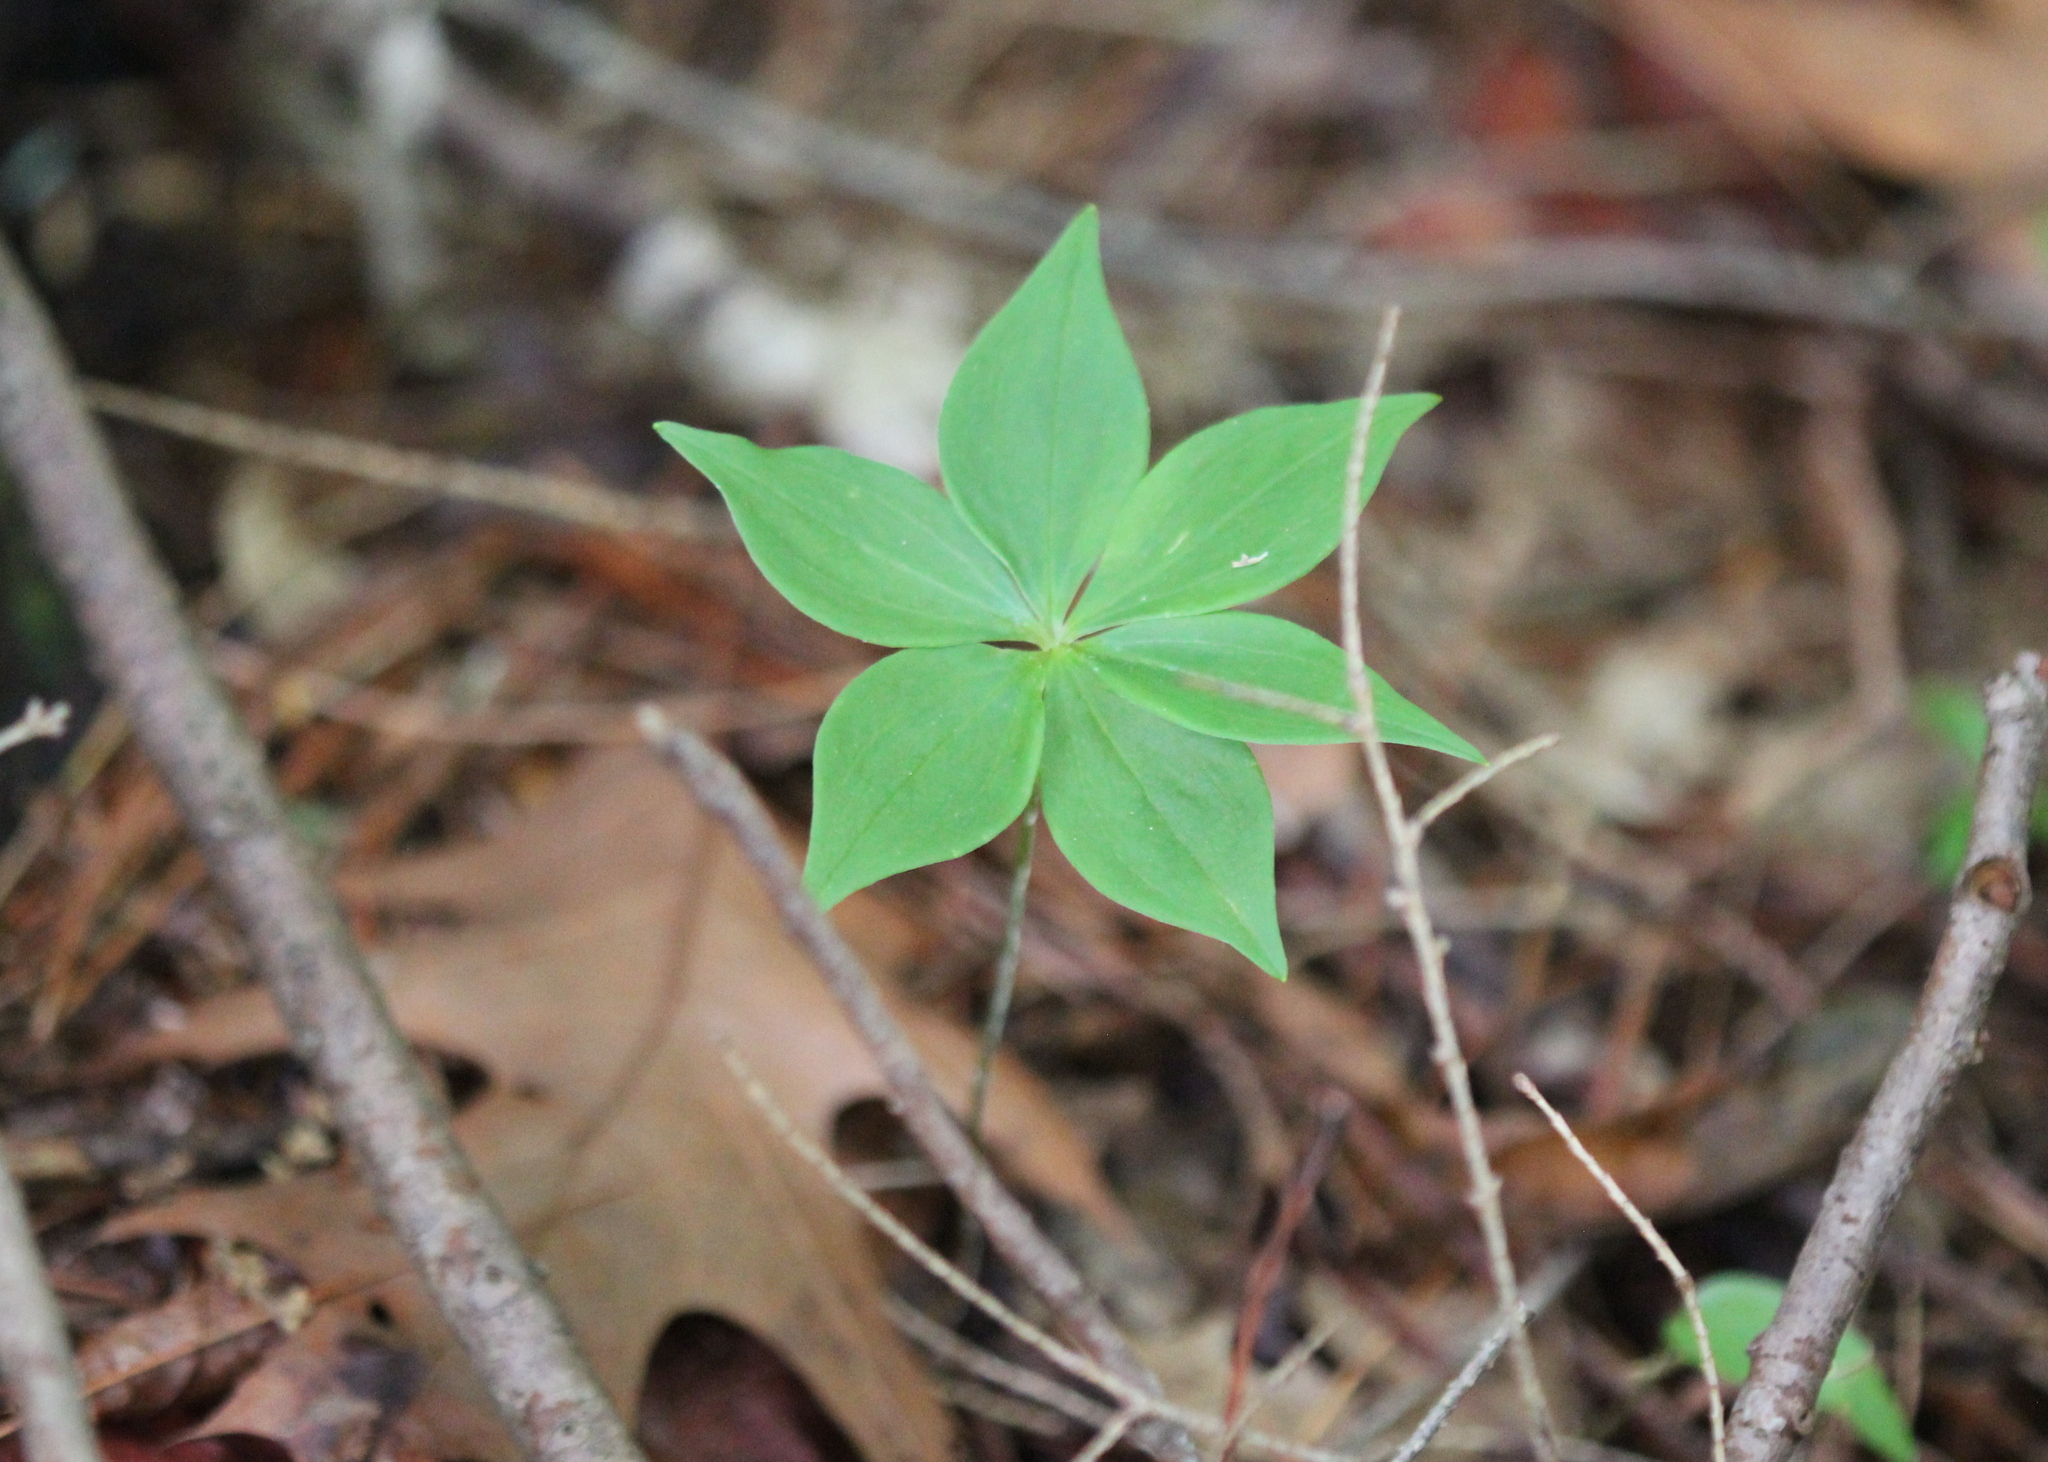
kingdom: Plantae
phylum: Tracheophyta
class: Liliopsida
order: Liliales
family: Liliaceae
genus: Medeola
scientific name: Medeola virginiana
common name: Indian cucumber-root
